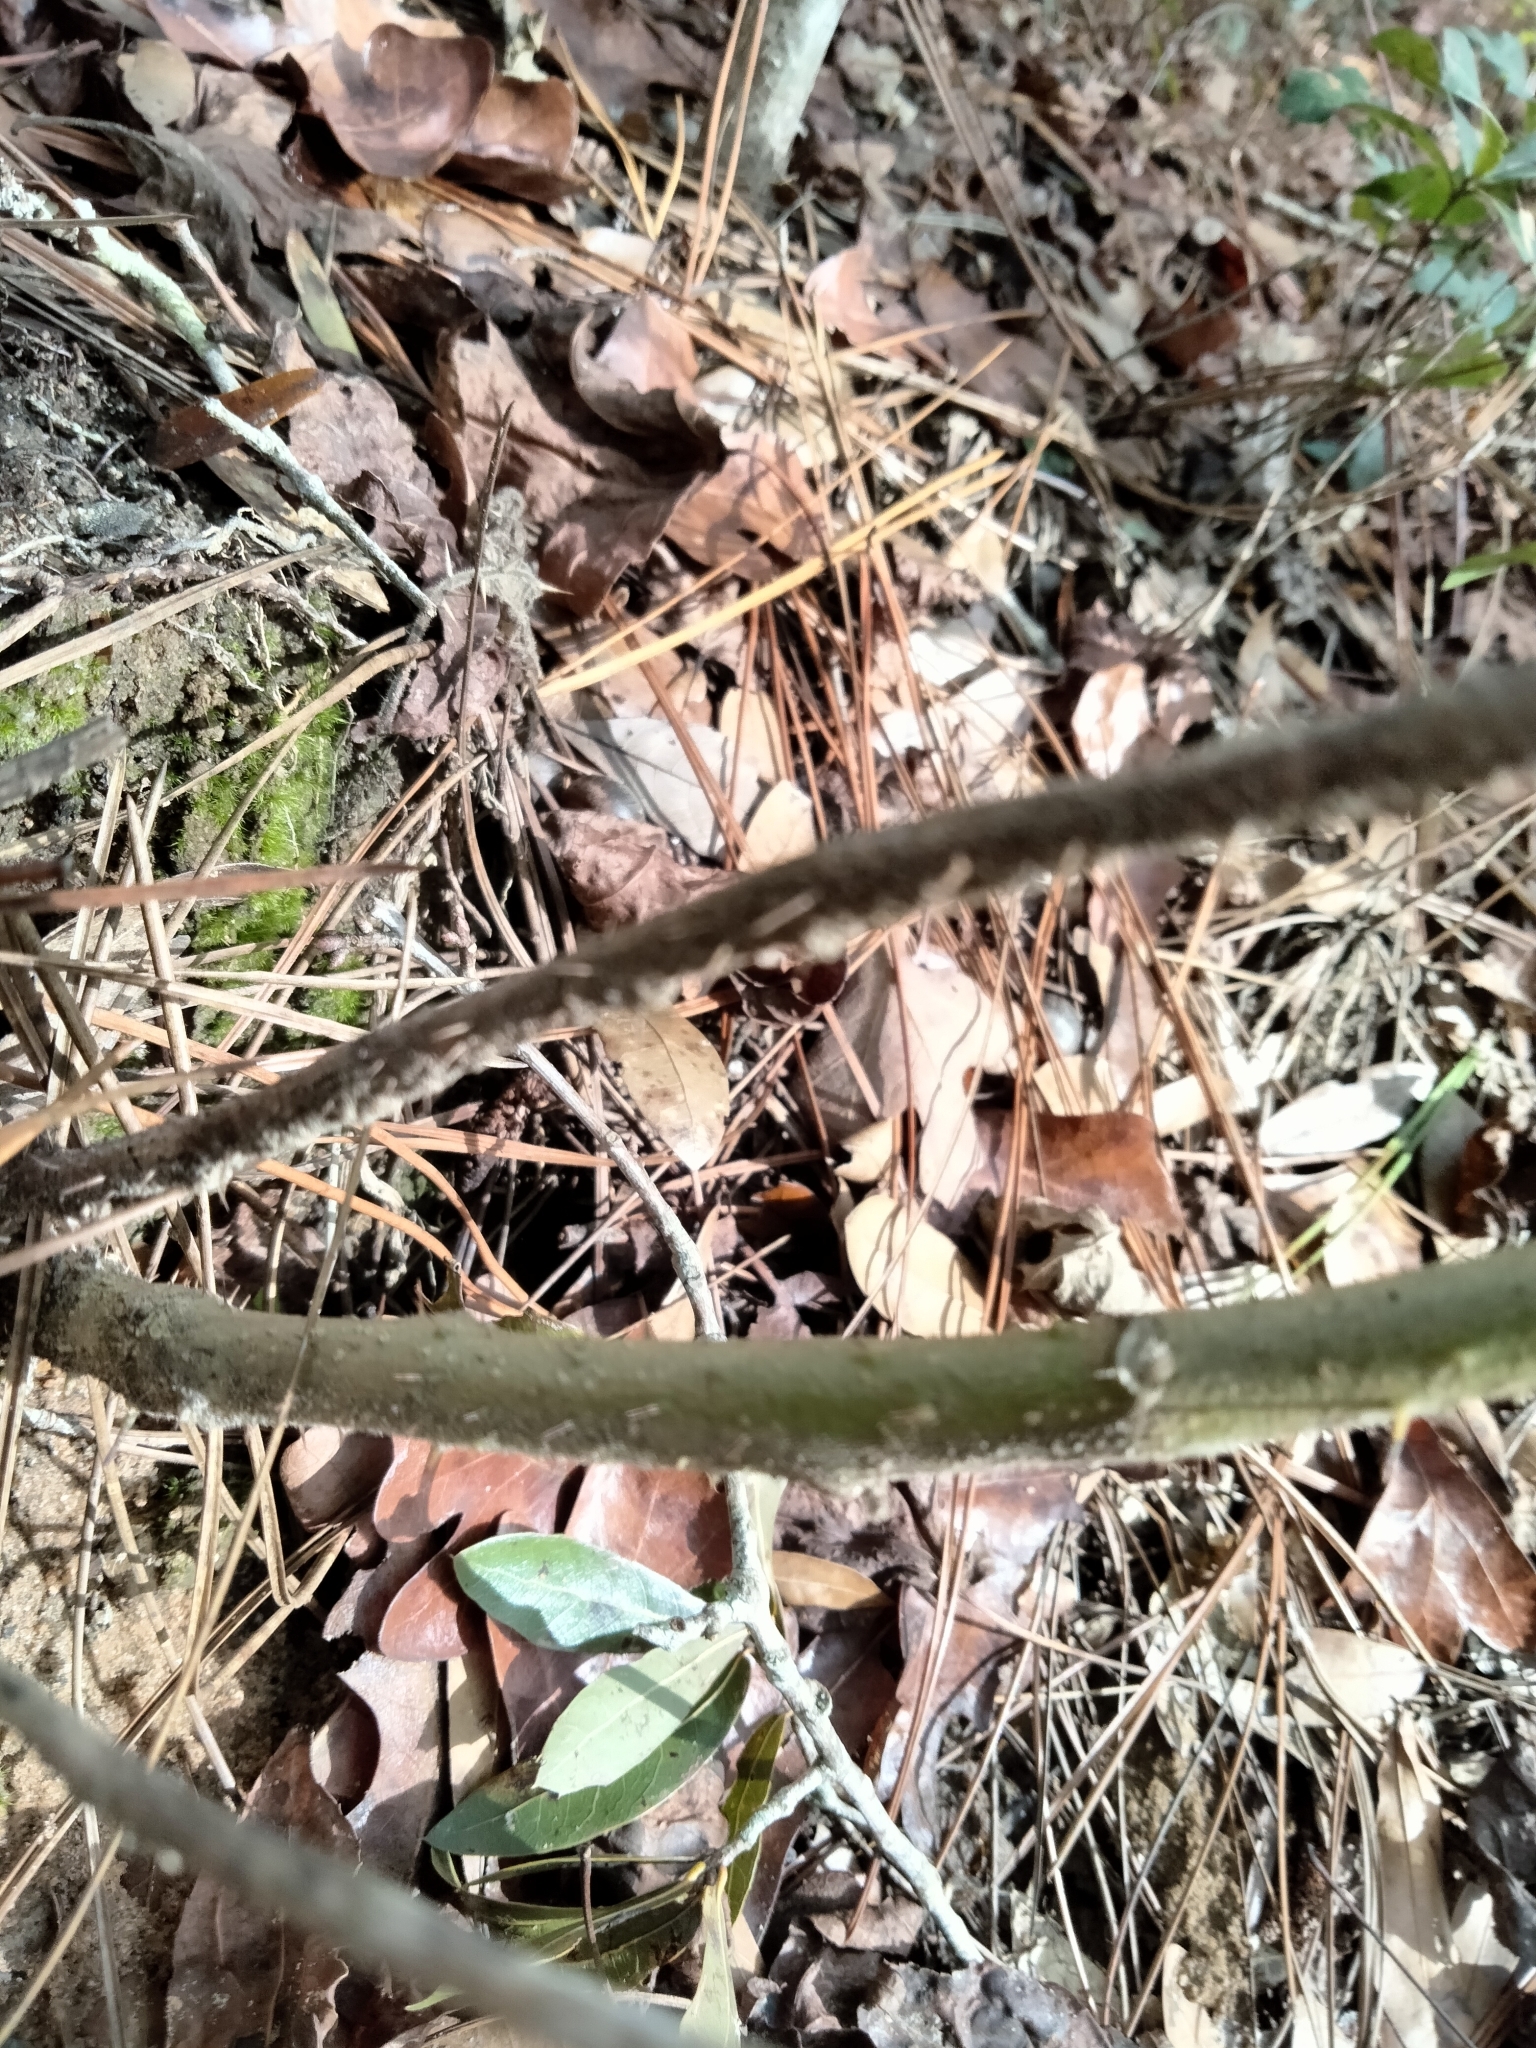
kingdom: Plantae
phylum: Tracheophyta
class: Magnoliopsida
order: Solanales
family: Solanaceae
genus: Solanum
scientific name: Solanum viarum
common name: Tropical soda apple
